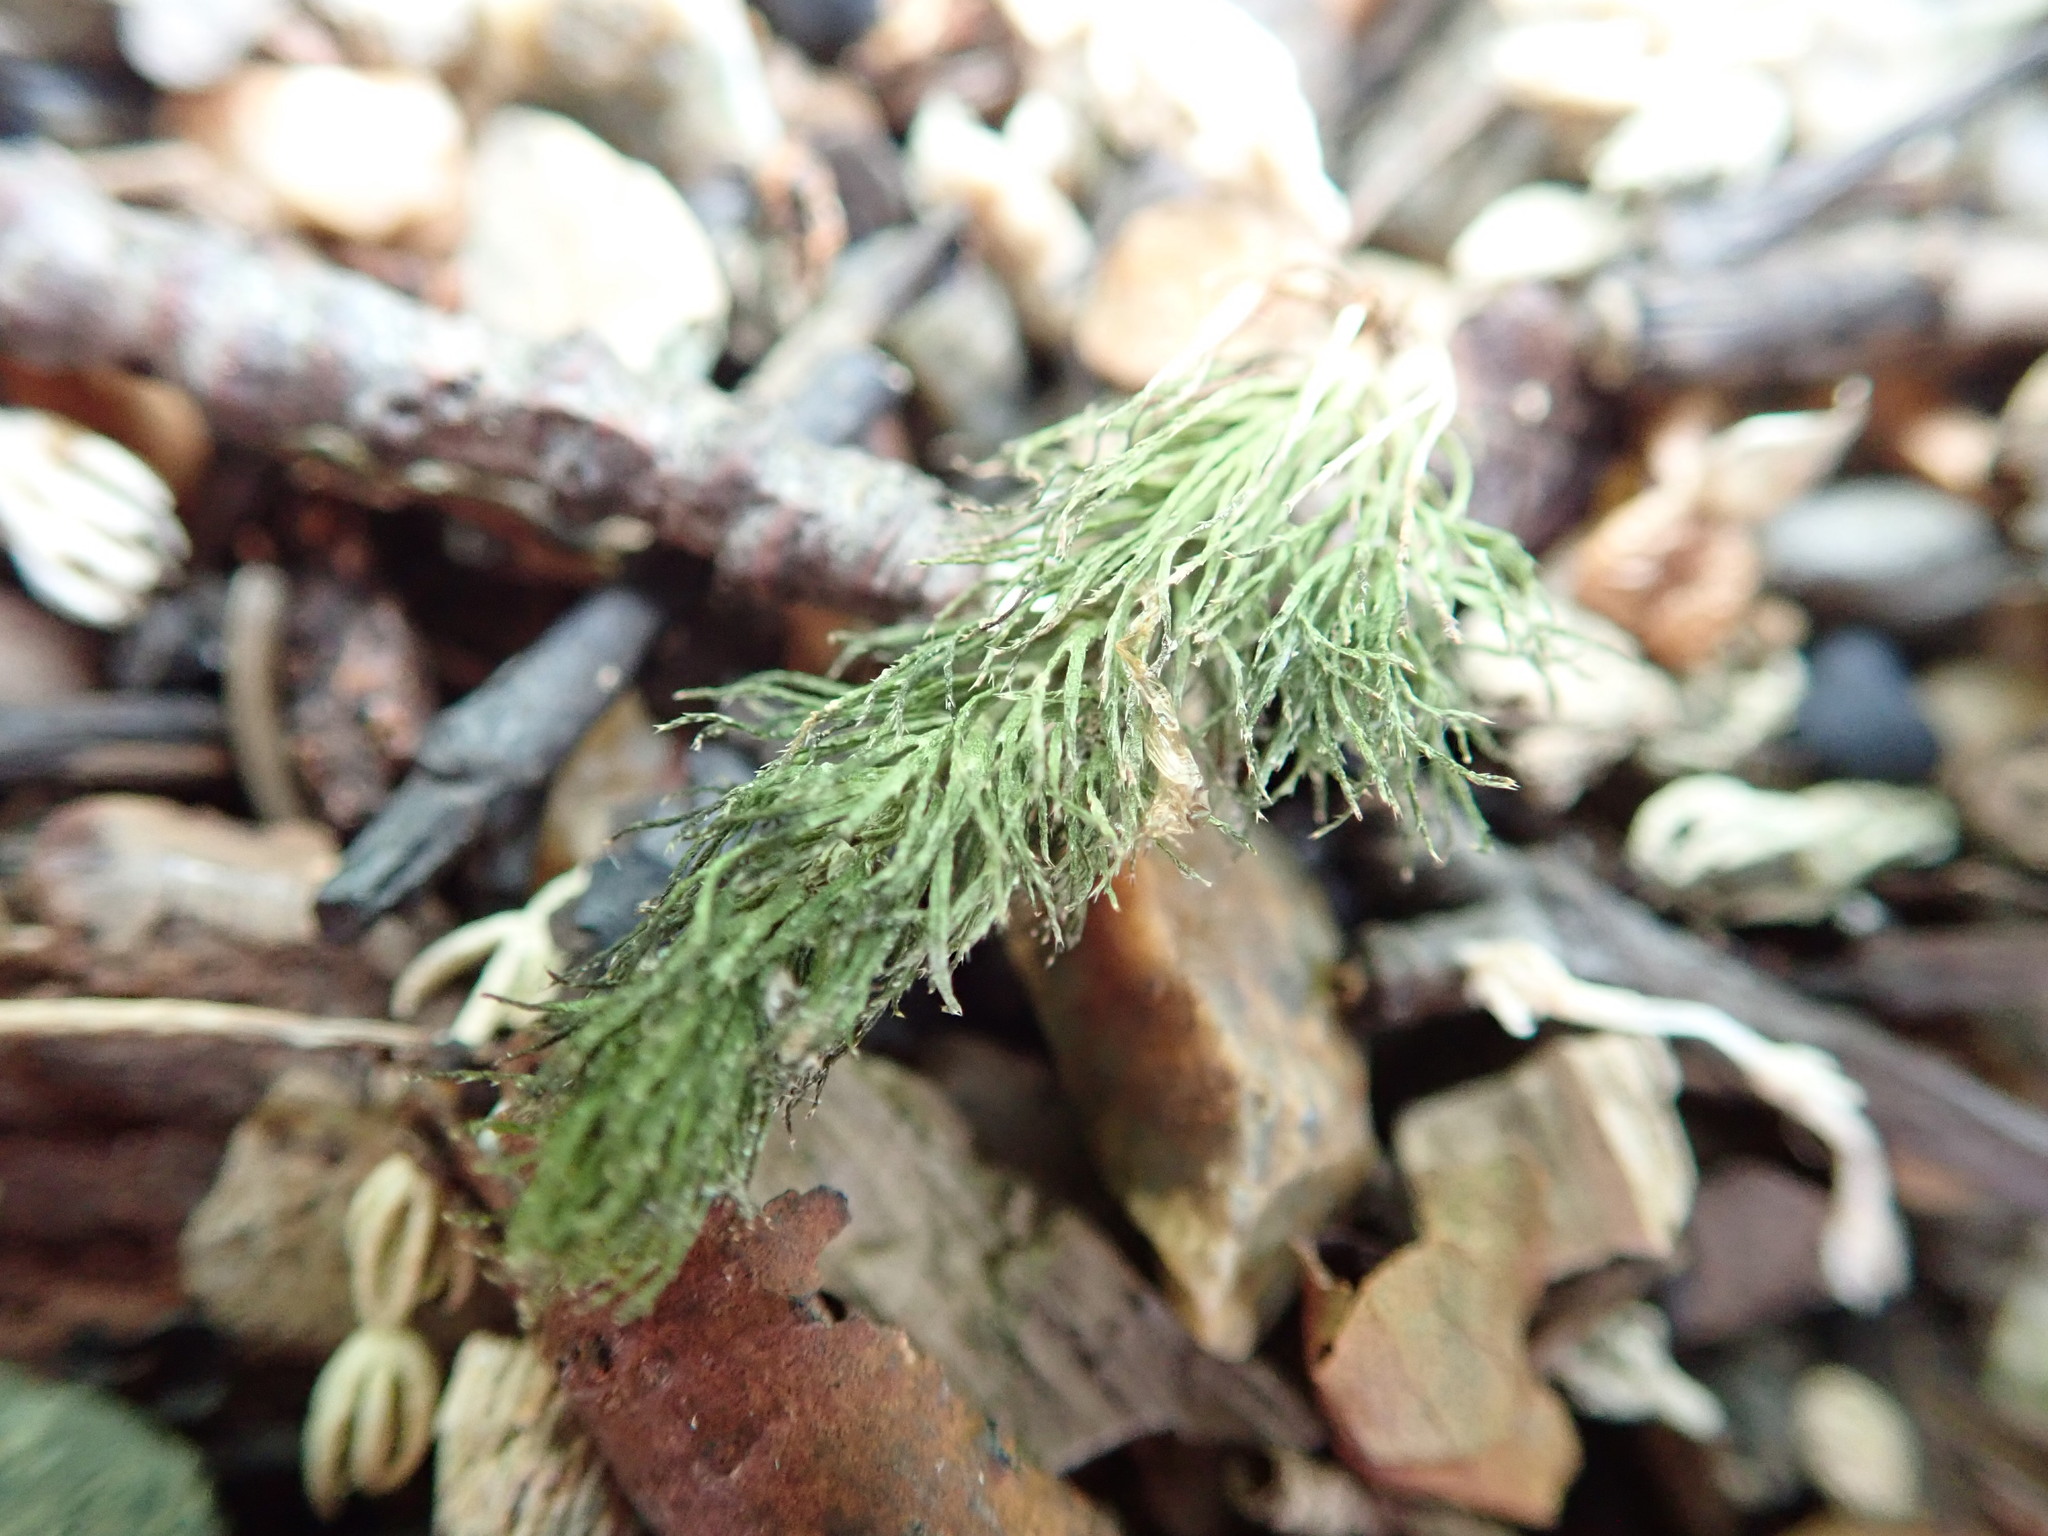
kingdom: Plantae
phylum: Tracheophyta
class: Magnoliopsida
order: Ceratophyllales
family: Ceratophyllaceae
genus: Ceratophyllum
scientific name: Ceratophyllum demersum
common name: Rigid hornwort
